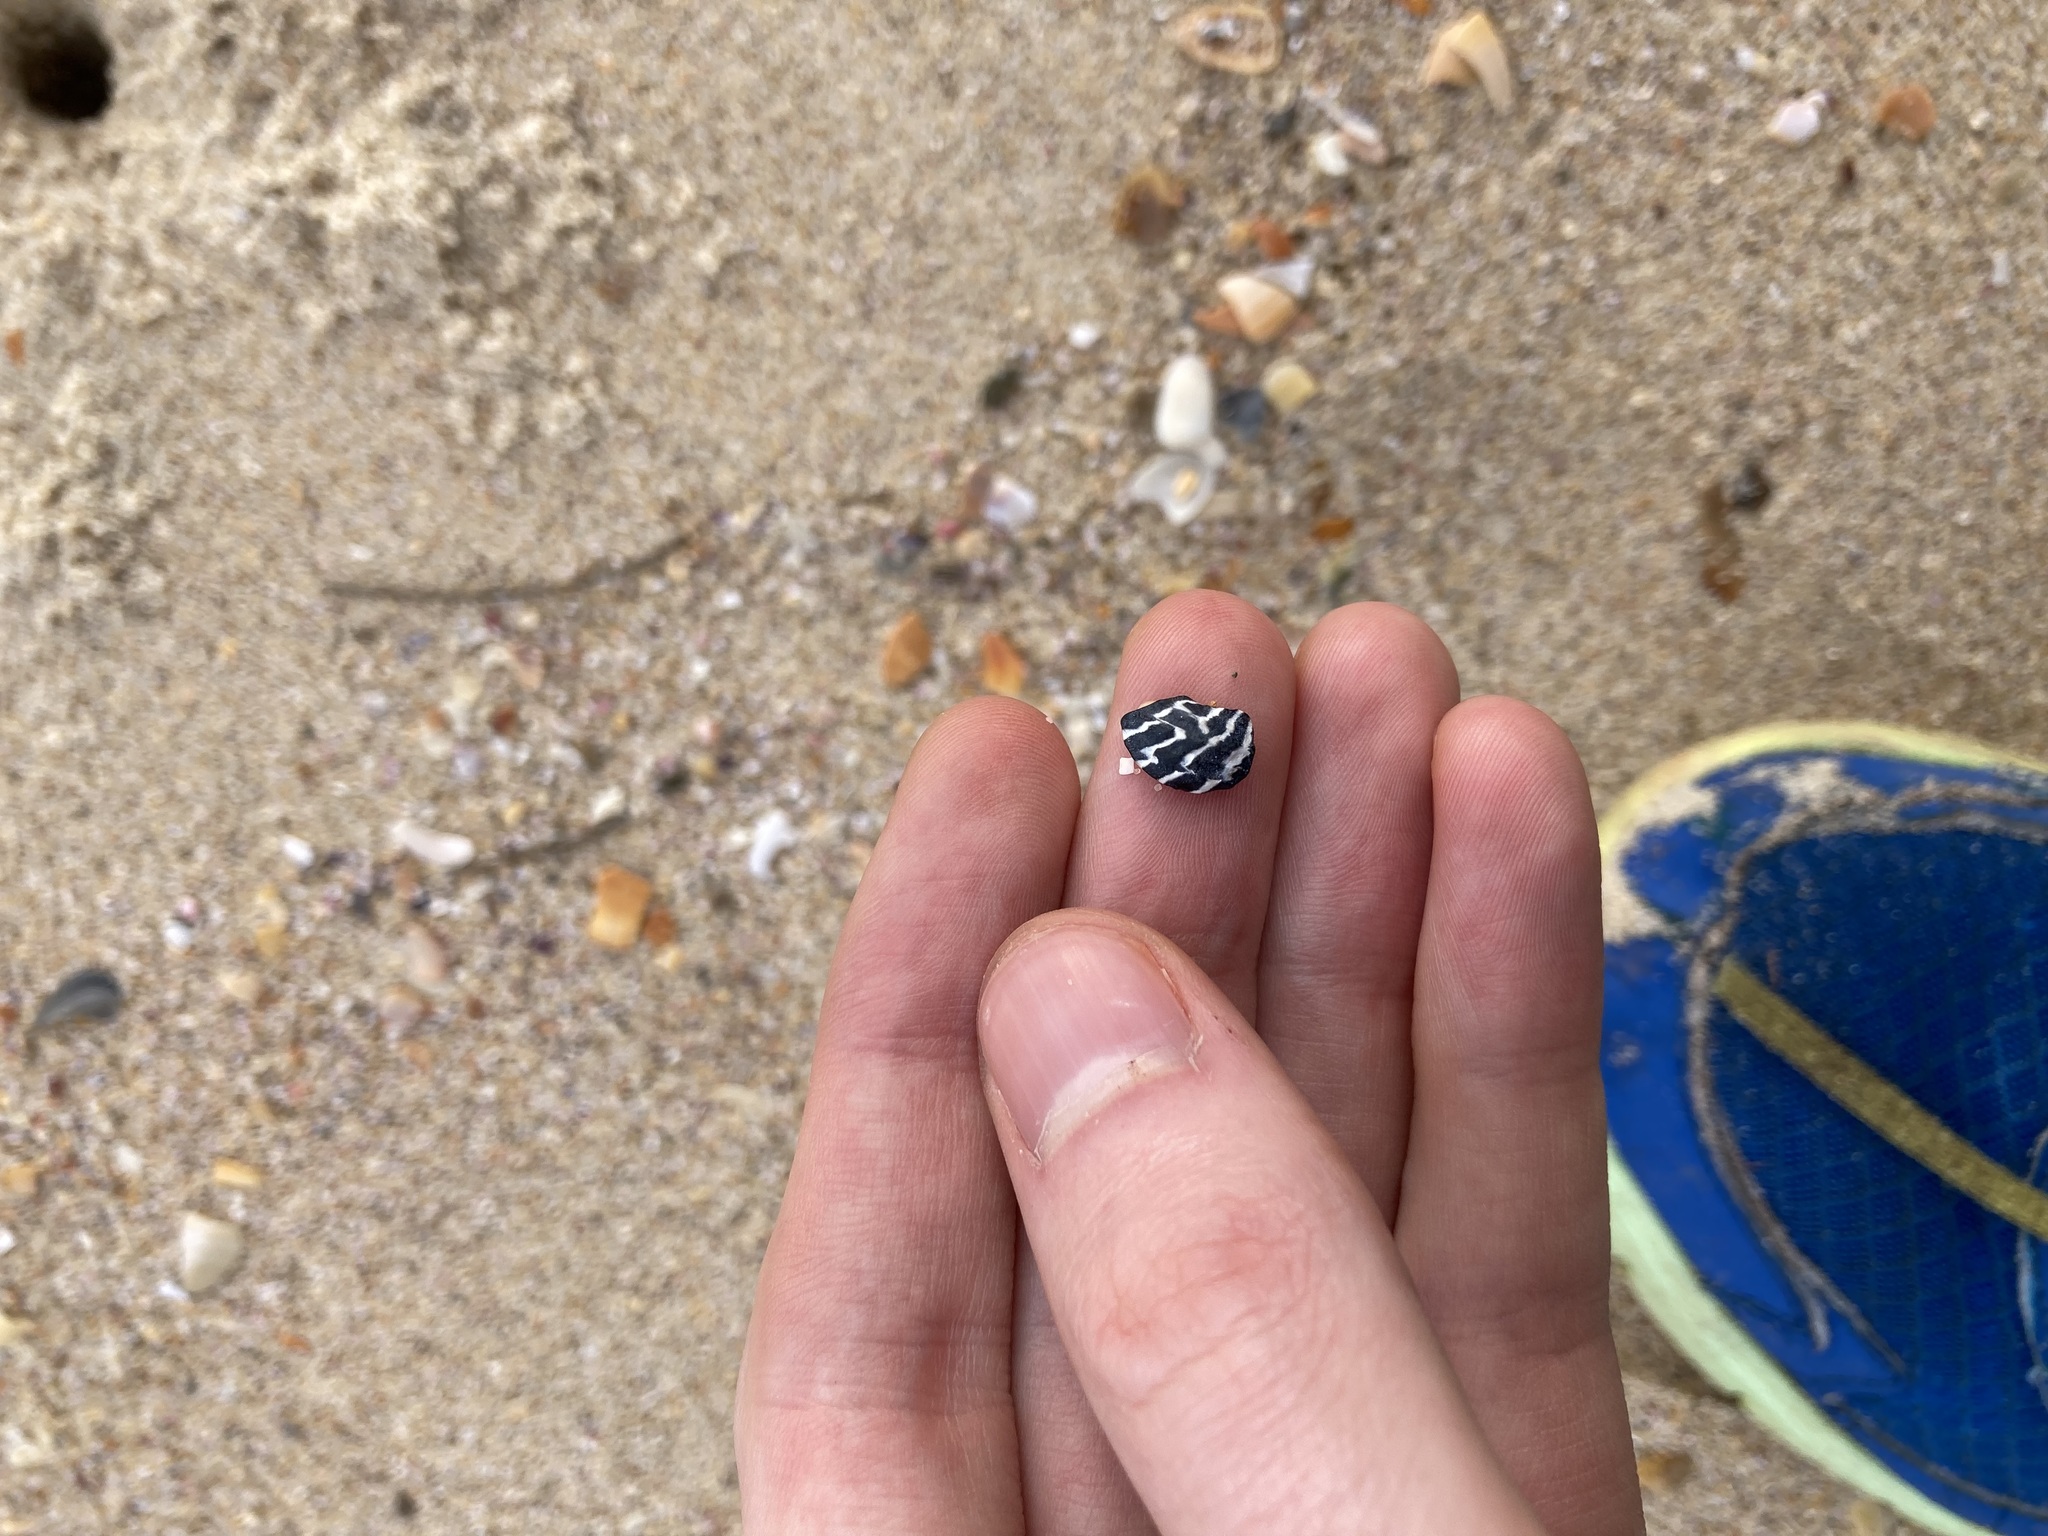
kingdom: Animalia
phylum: Mollusca
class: Gastropoda
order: Trochida
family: Trochidae
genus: Austrocochlea
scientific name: Austrocochlea porcata
